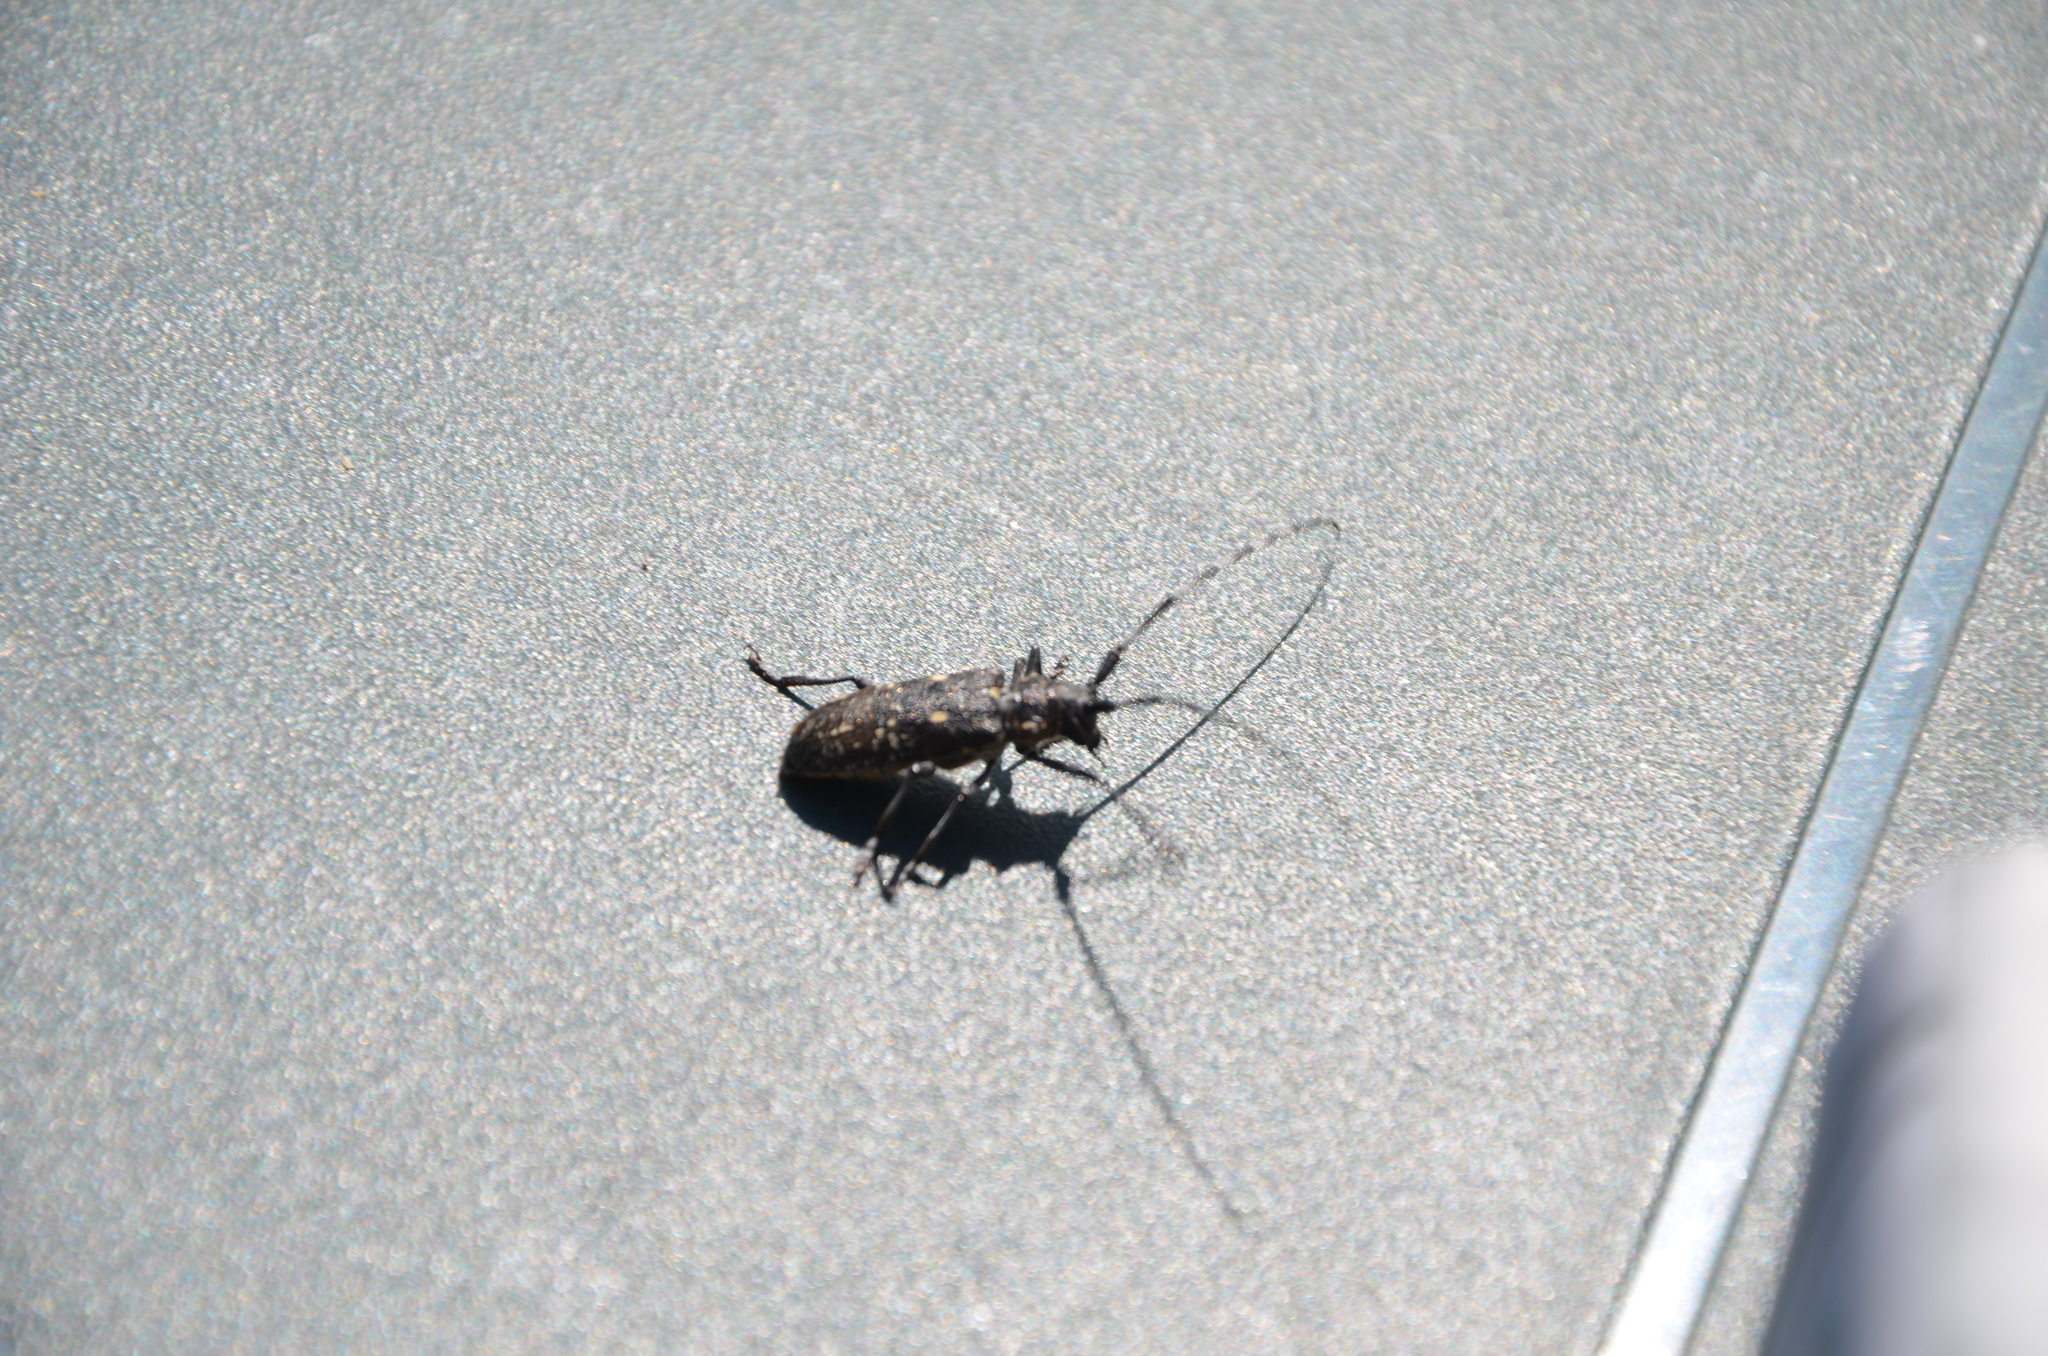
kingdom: Animalia
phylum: Arthropoda
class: Insecta
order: Coleoptera
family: Cerambycidae
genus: Monochamus
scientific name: Monochamus sutor
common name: Pine sawyer
